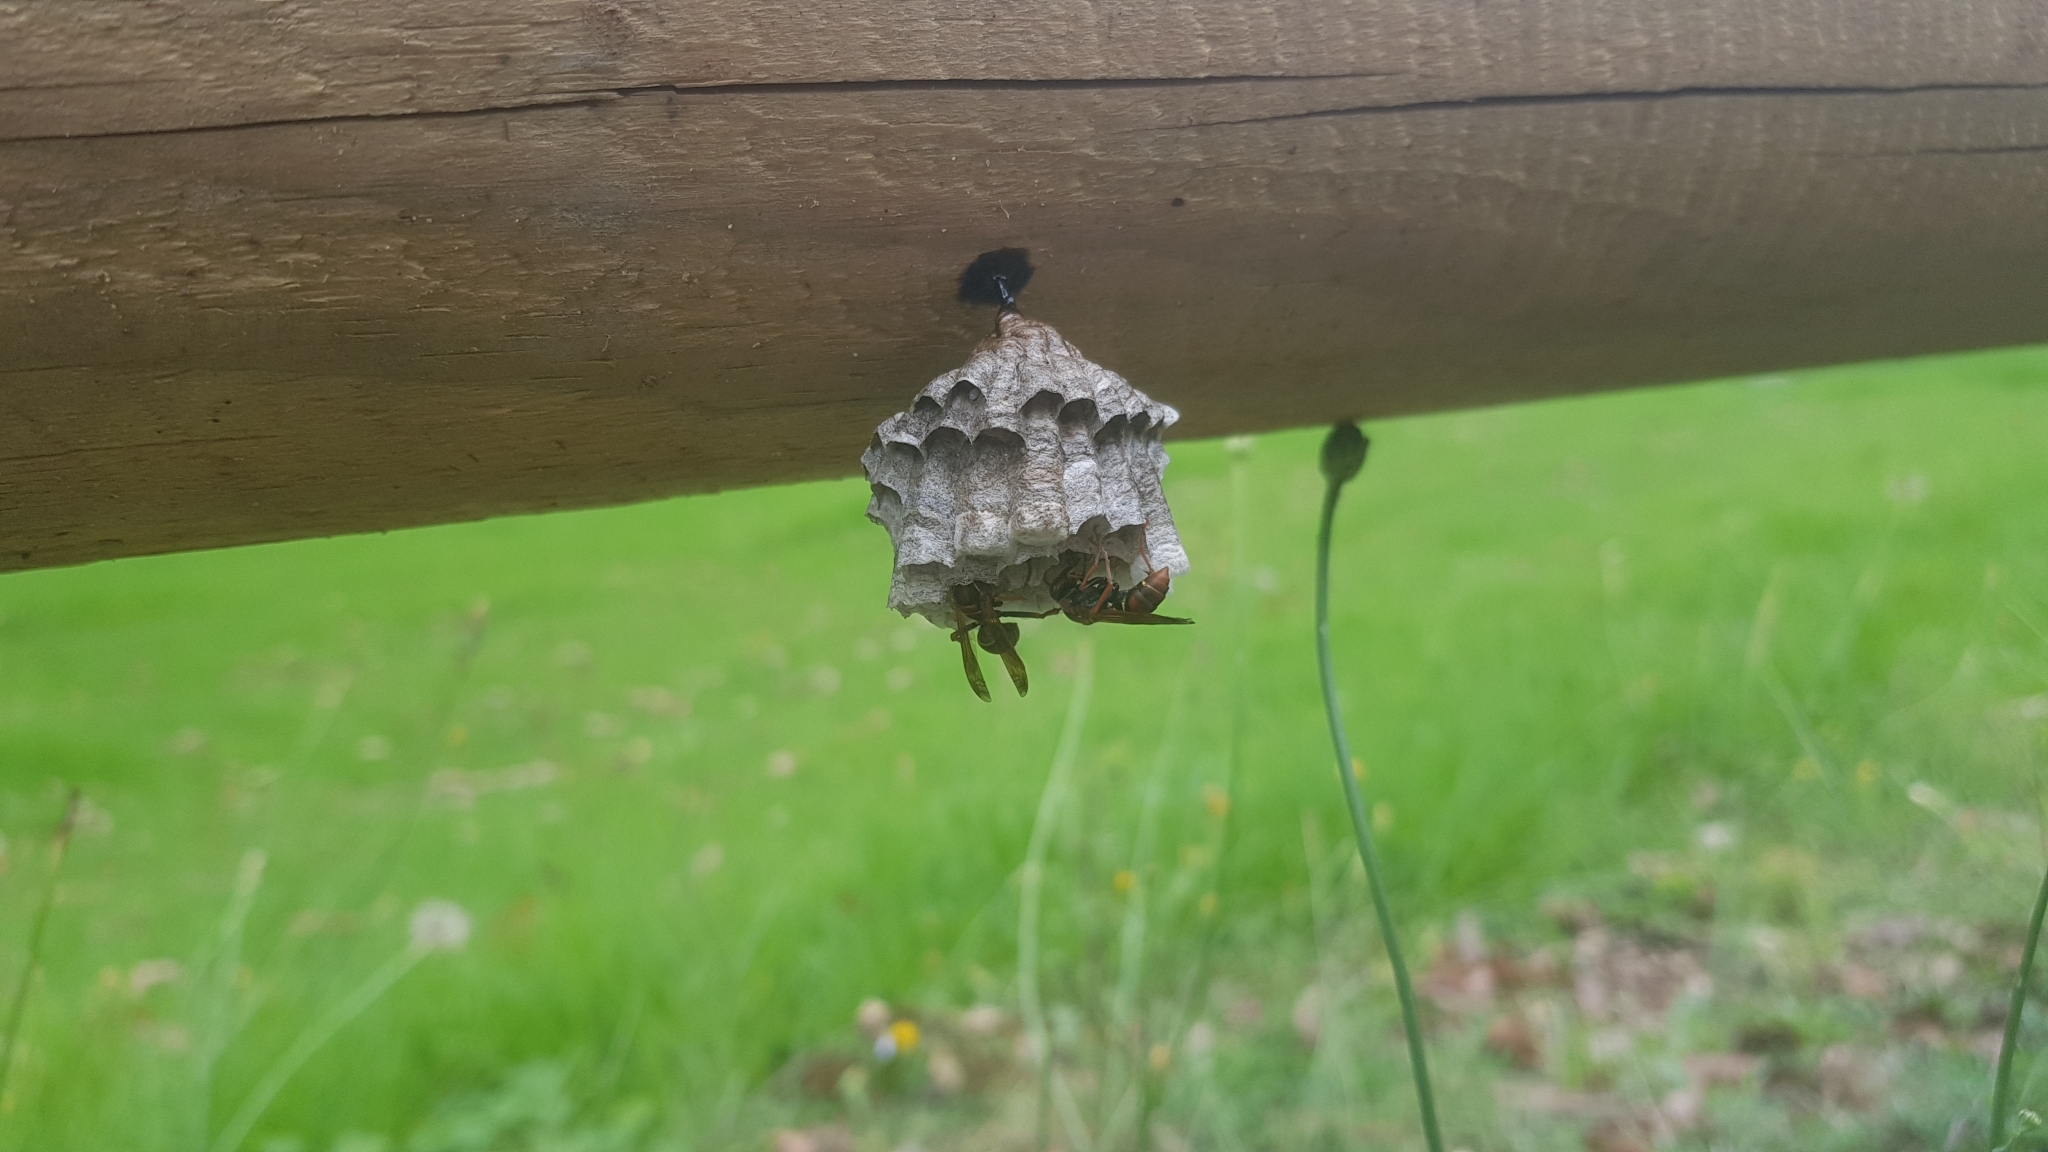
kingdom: Animalia
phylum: Arthropoda
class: Insecta
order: Hymenoptera
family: Eumenidae
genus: Polistes
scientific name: Polistes humilis
